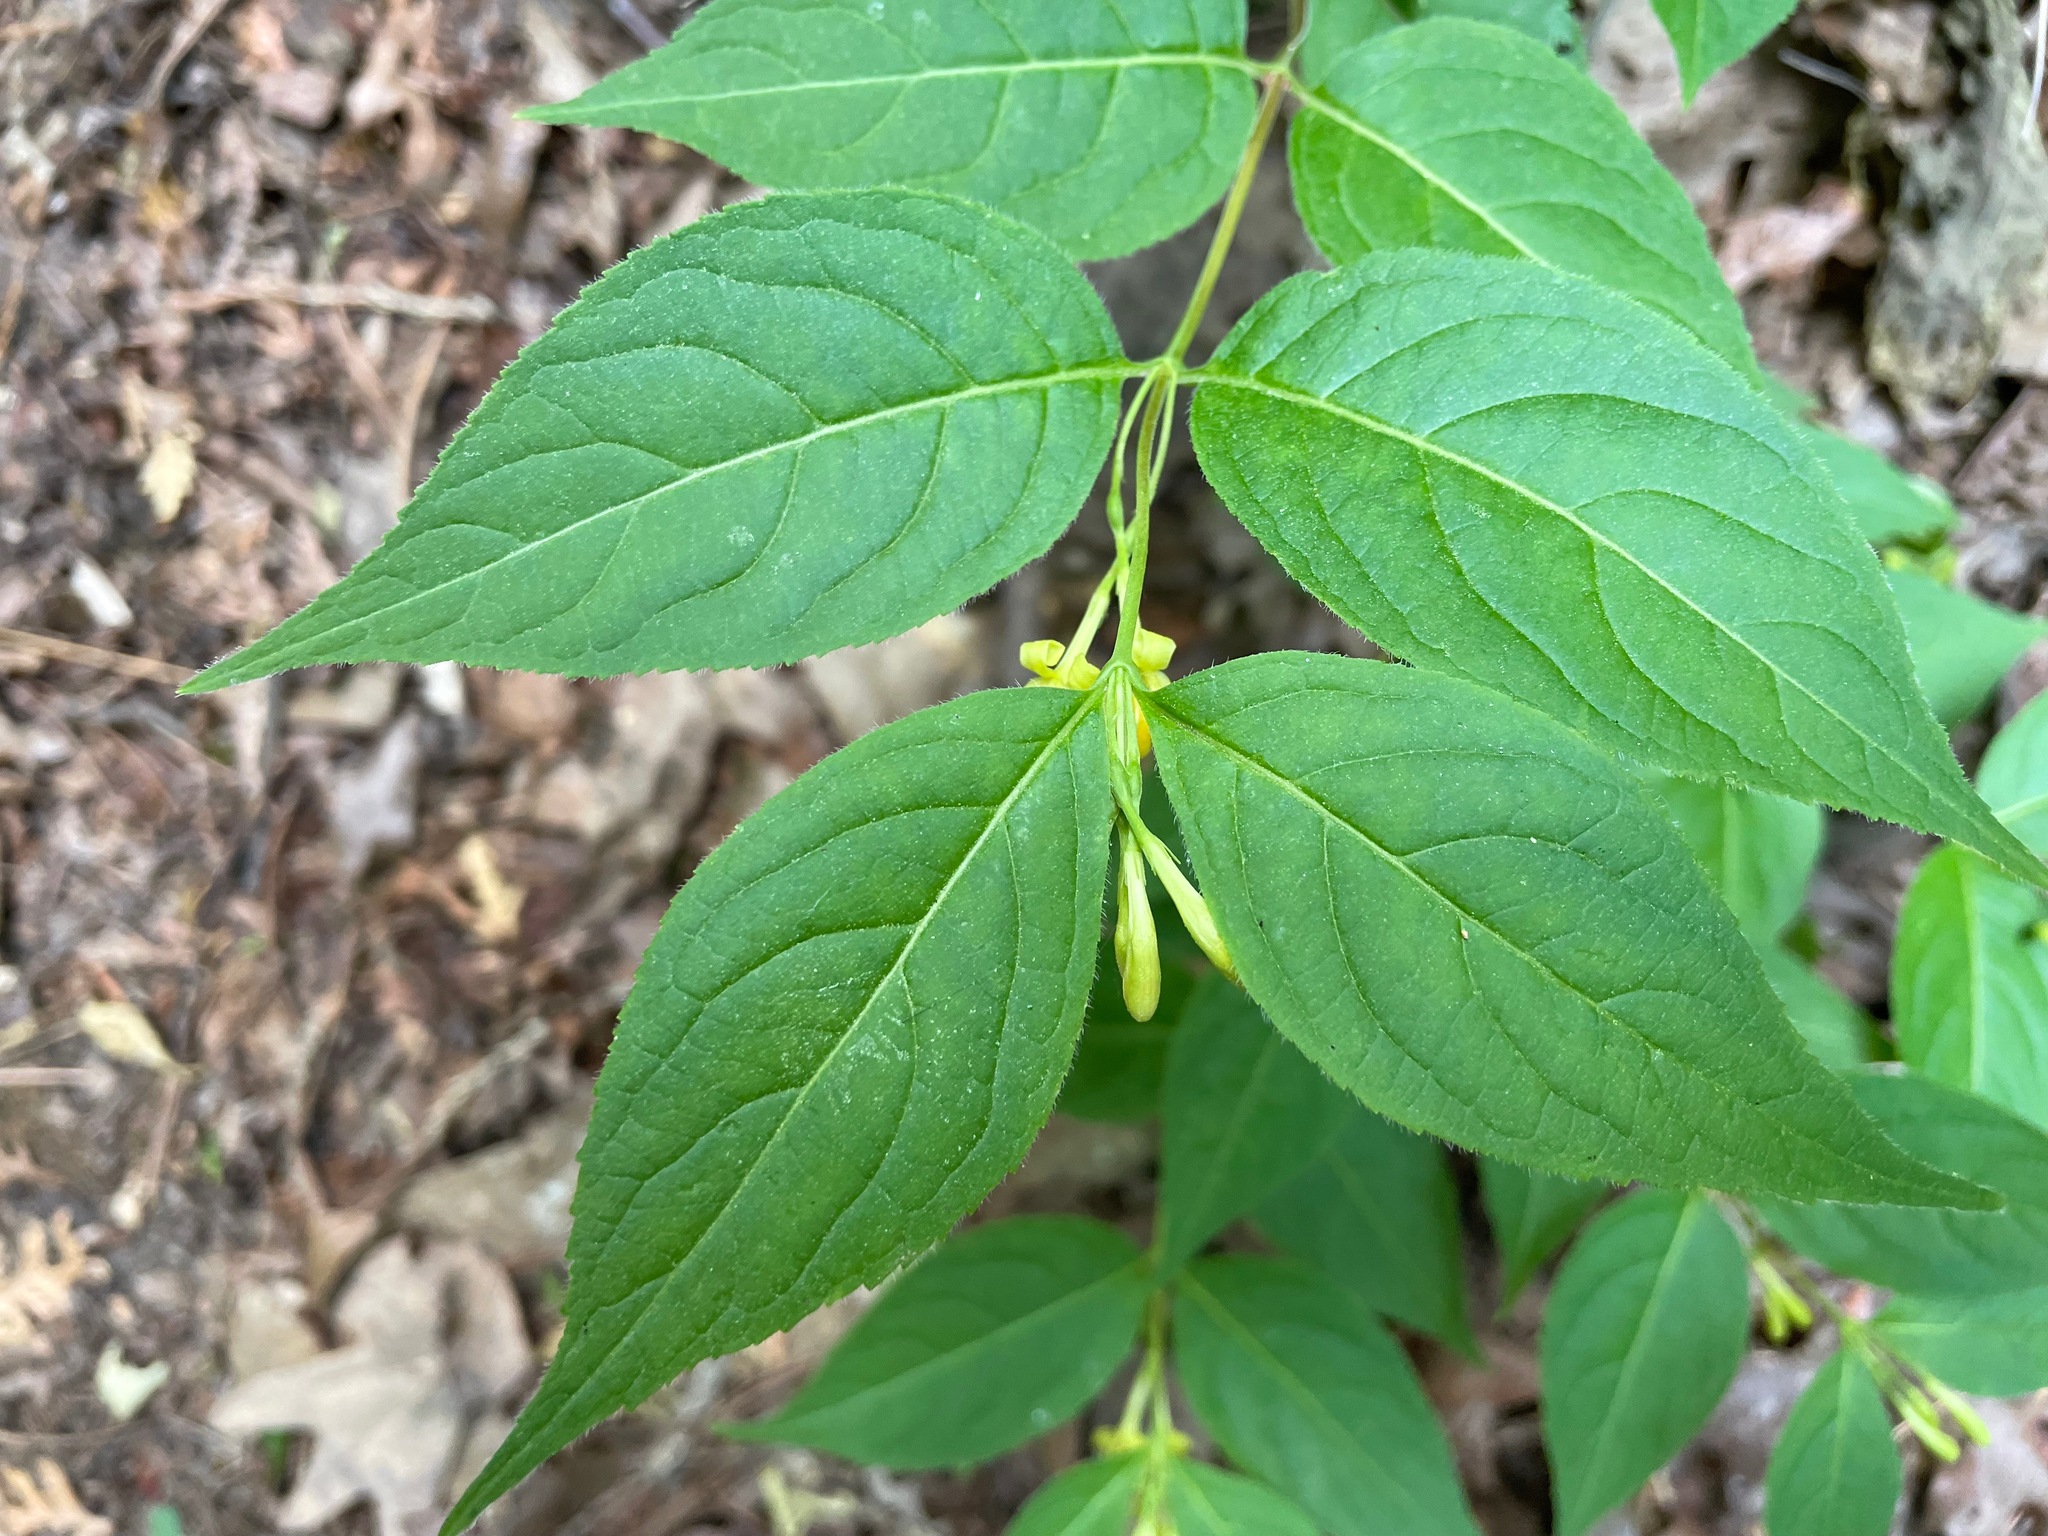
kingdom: Plantae
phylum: Tracheophyta
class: Magnoliopsida
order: Dipsacales
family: Caprifoliaceae
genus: Diervilla
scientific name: Diervilla lonicera
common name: Bush-honeysuckle
